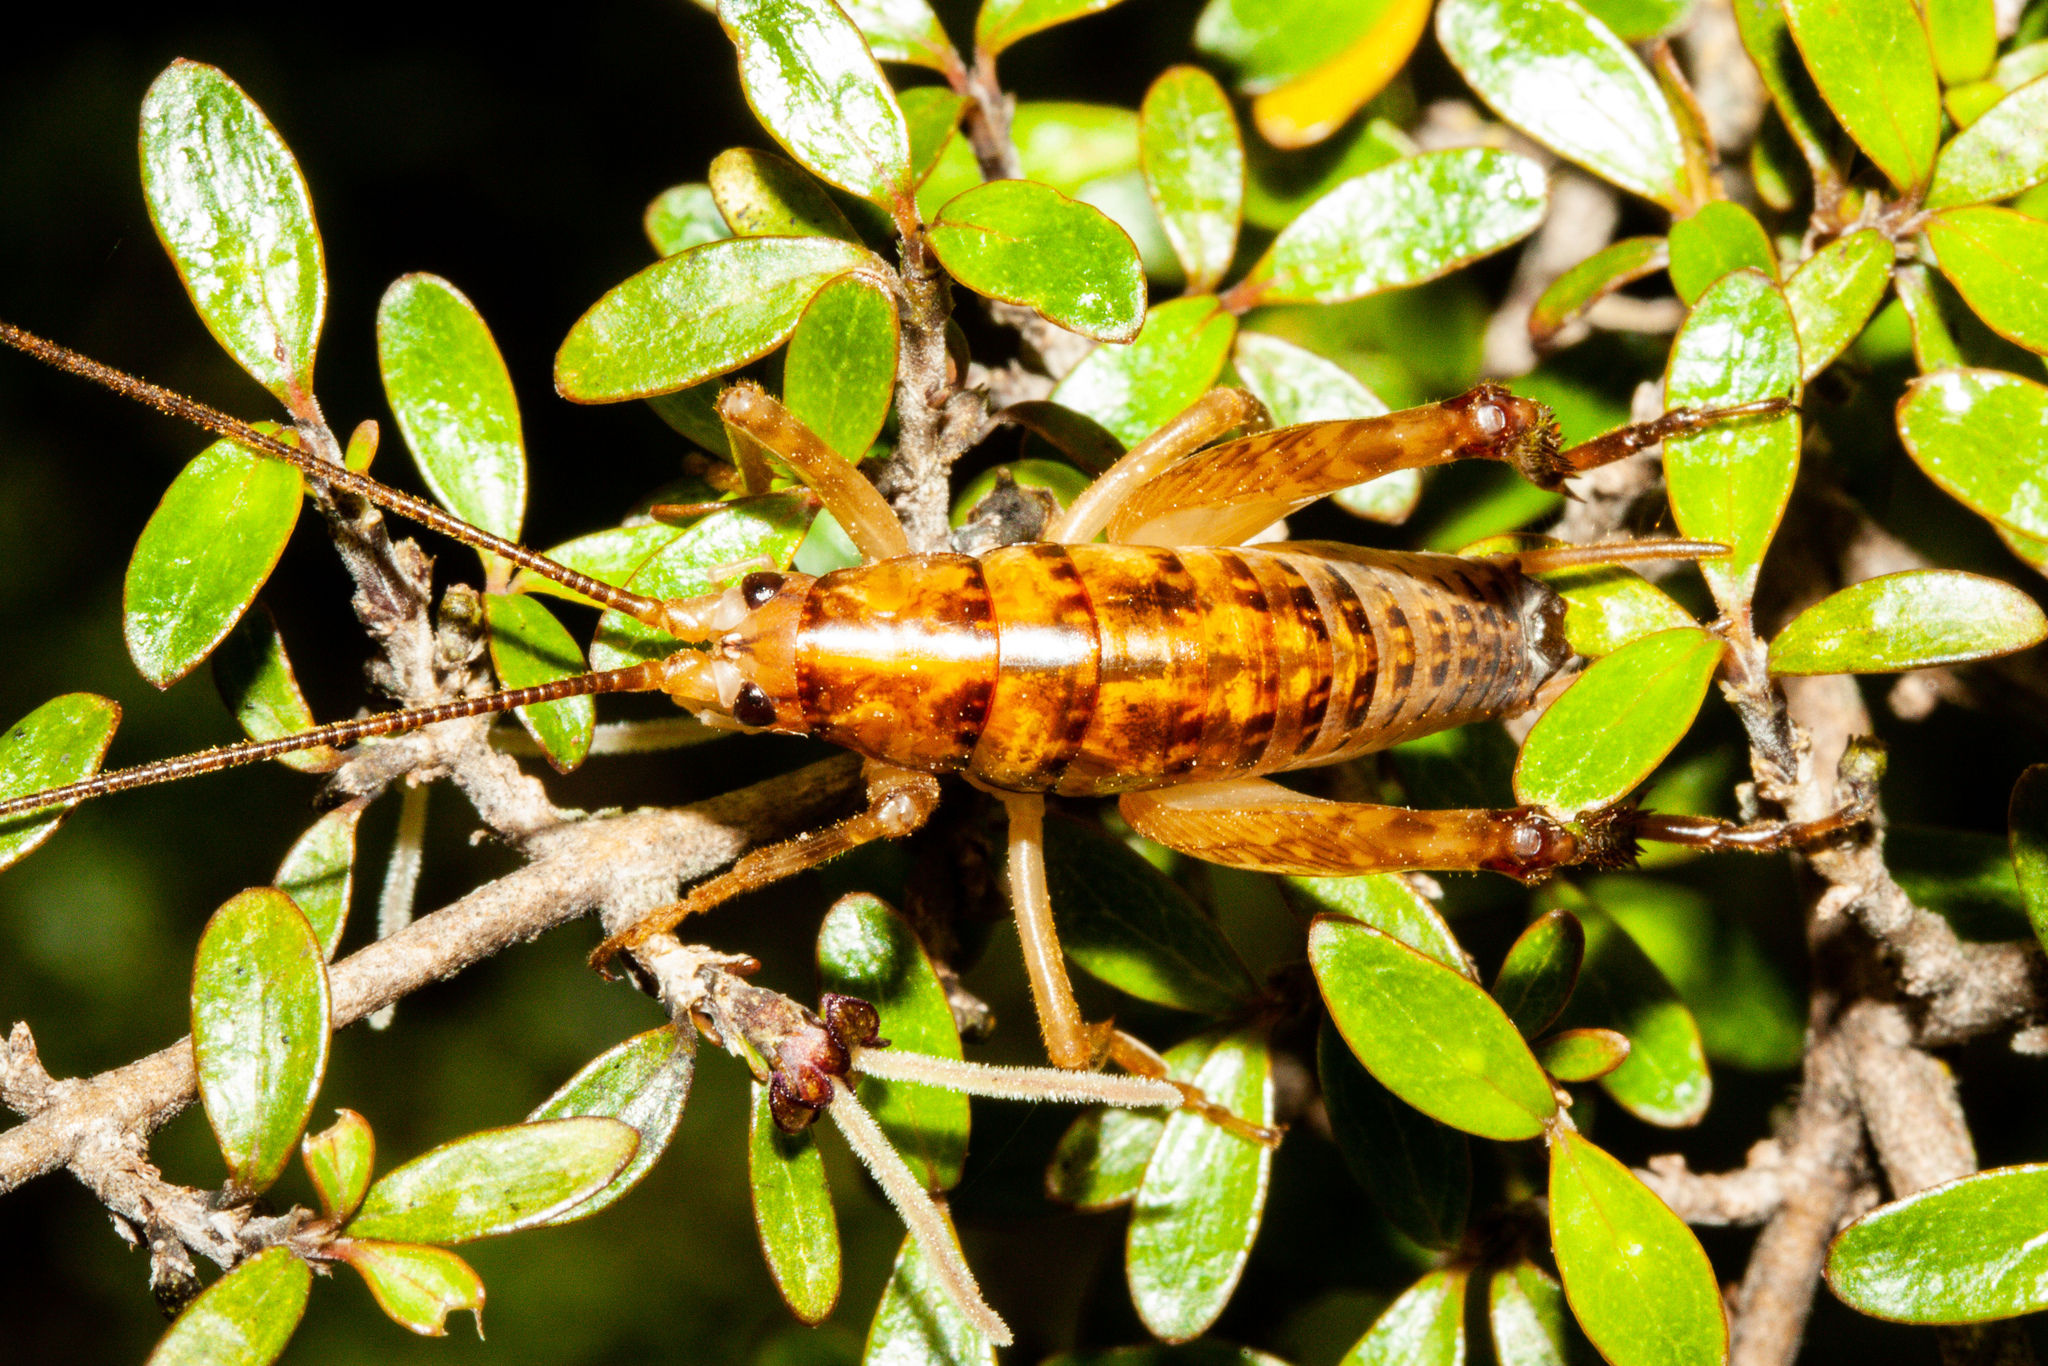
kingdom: Animalia
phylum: Arthropoda
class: Insecta
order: Orthoptera
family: Rhaphidophoridae
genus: Talitropsis
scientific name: Talitropsis sedilloti
